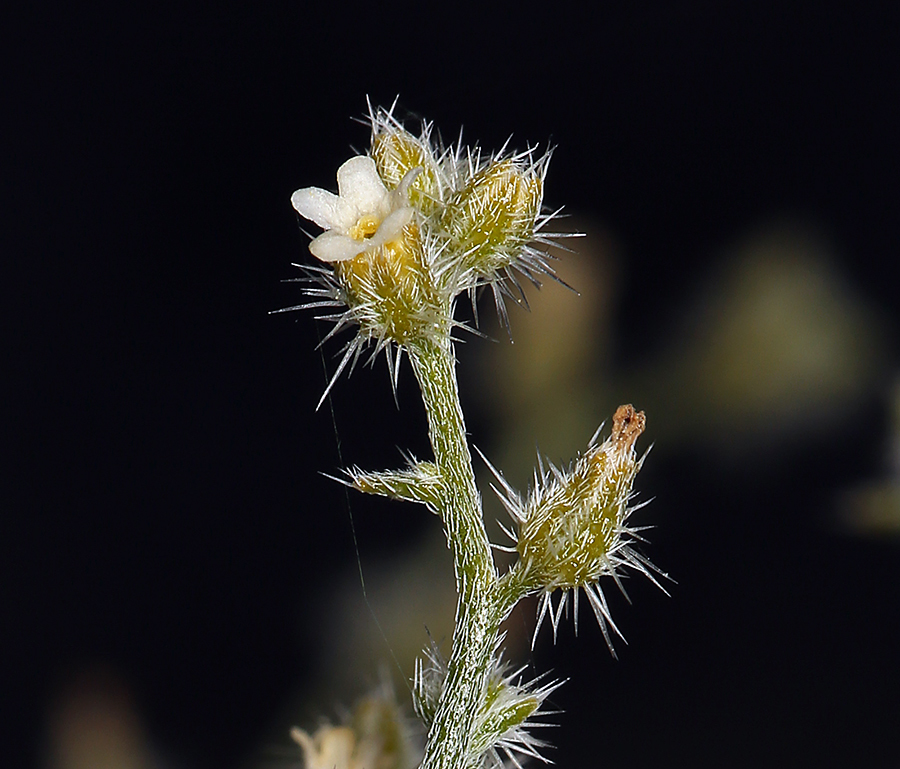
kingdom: Plantae
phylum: Tracheophyta
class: Magnoliopsida
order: Boraginales
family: Boraginaceae
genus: Johnstonella
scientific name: Johnstonella racemosa
